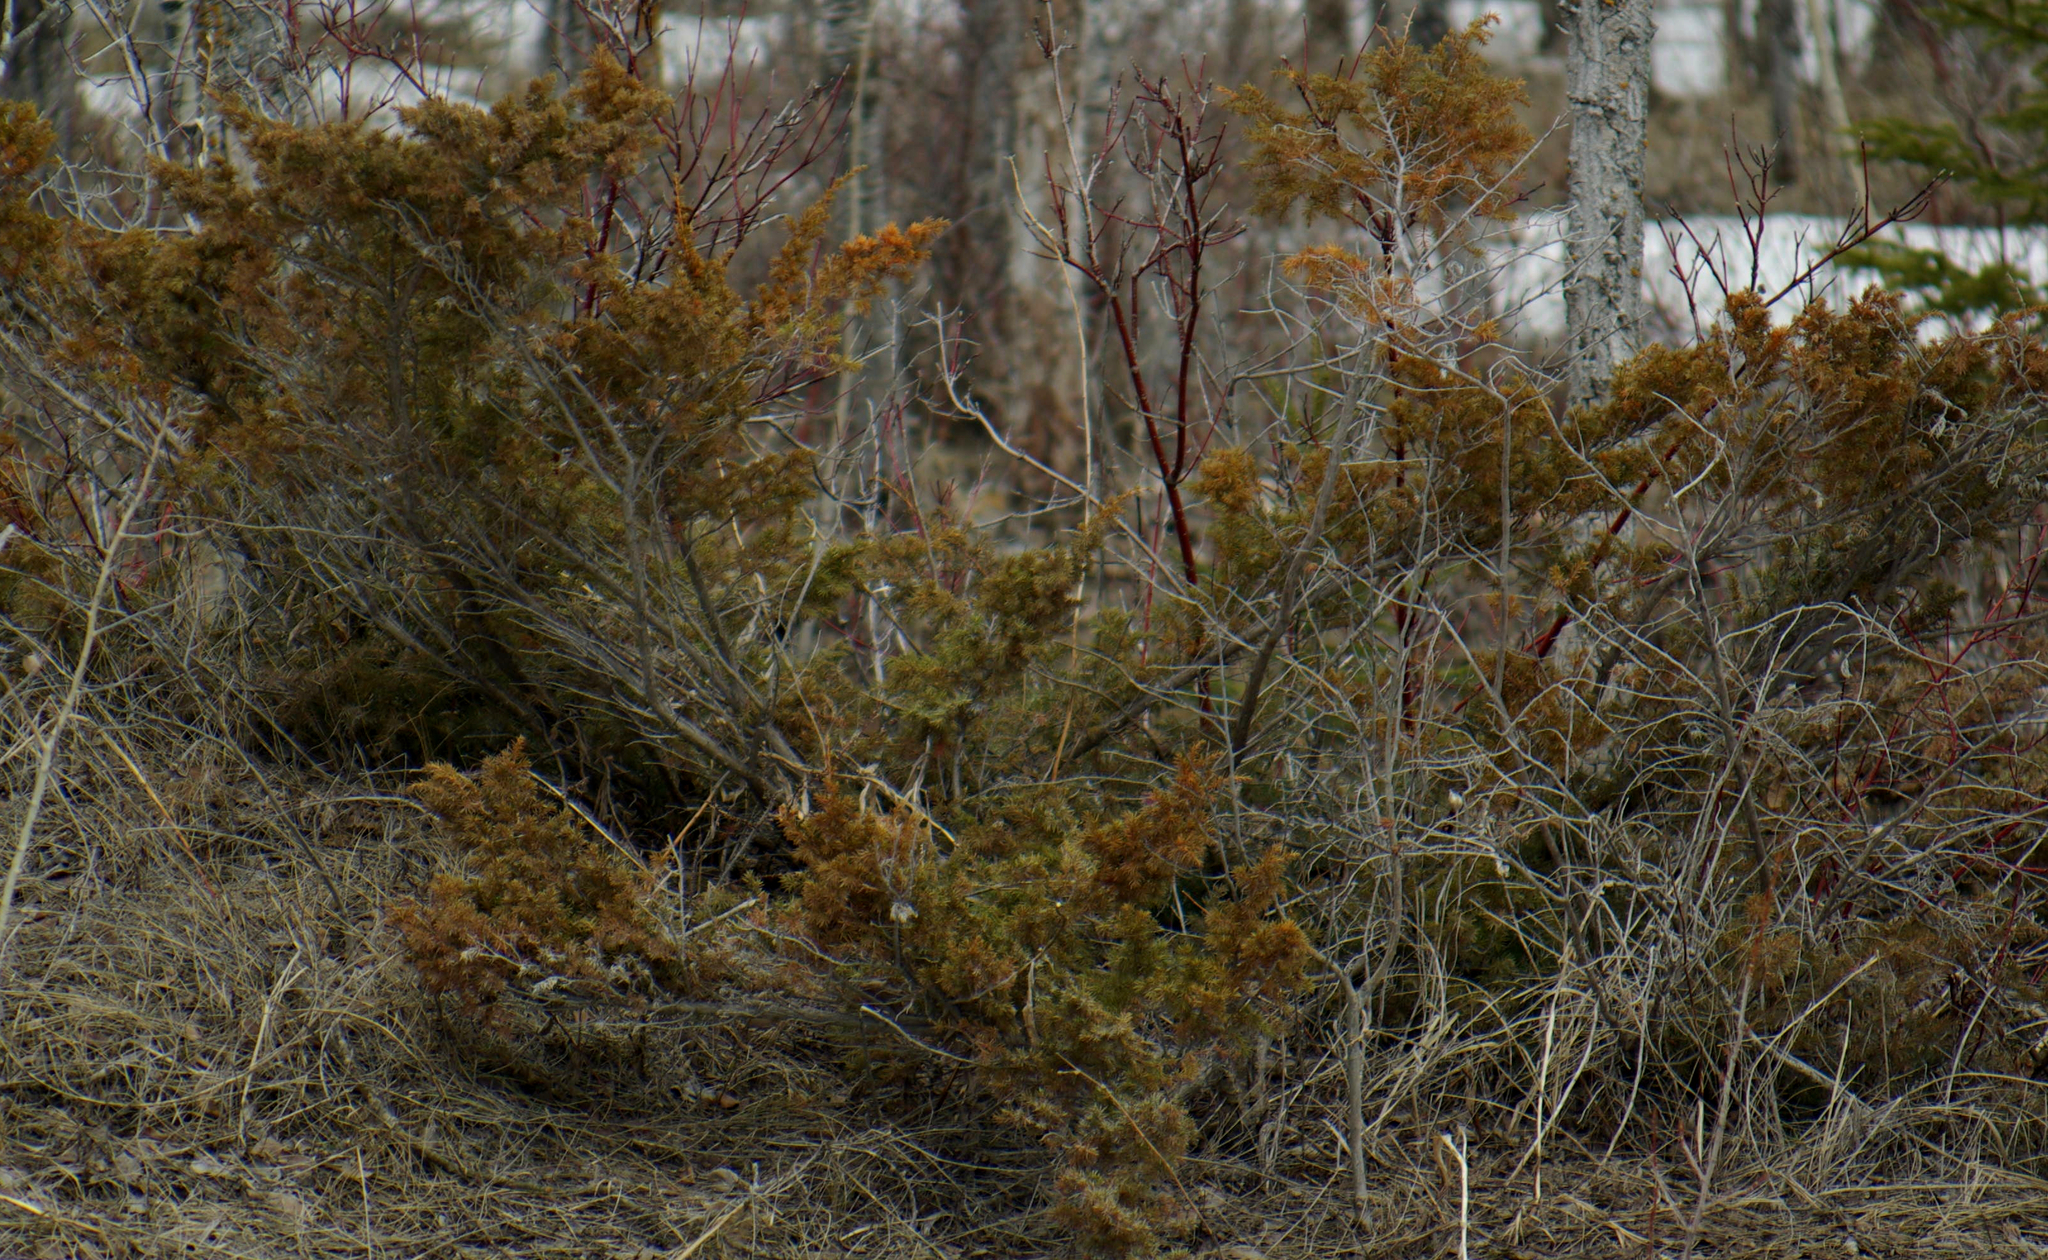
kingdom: Plantae
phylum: Tracheophyta
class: Pinopsida
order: Pinales
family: Cupressaceae
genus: Juniperus
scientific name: Juniperus communis
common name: Common juniper
